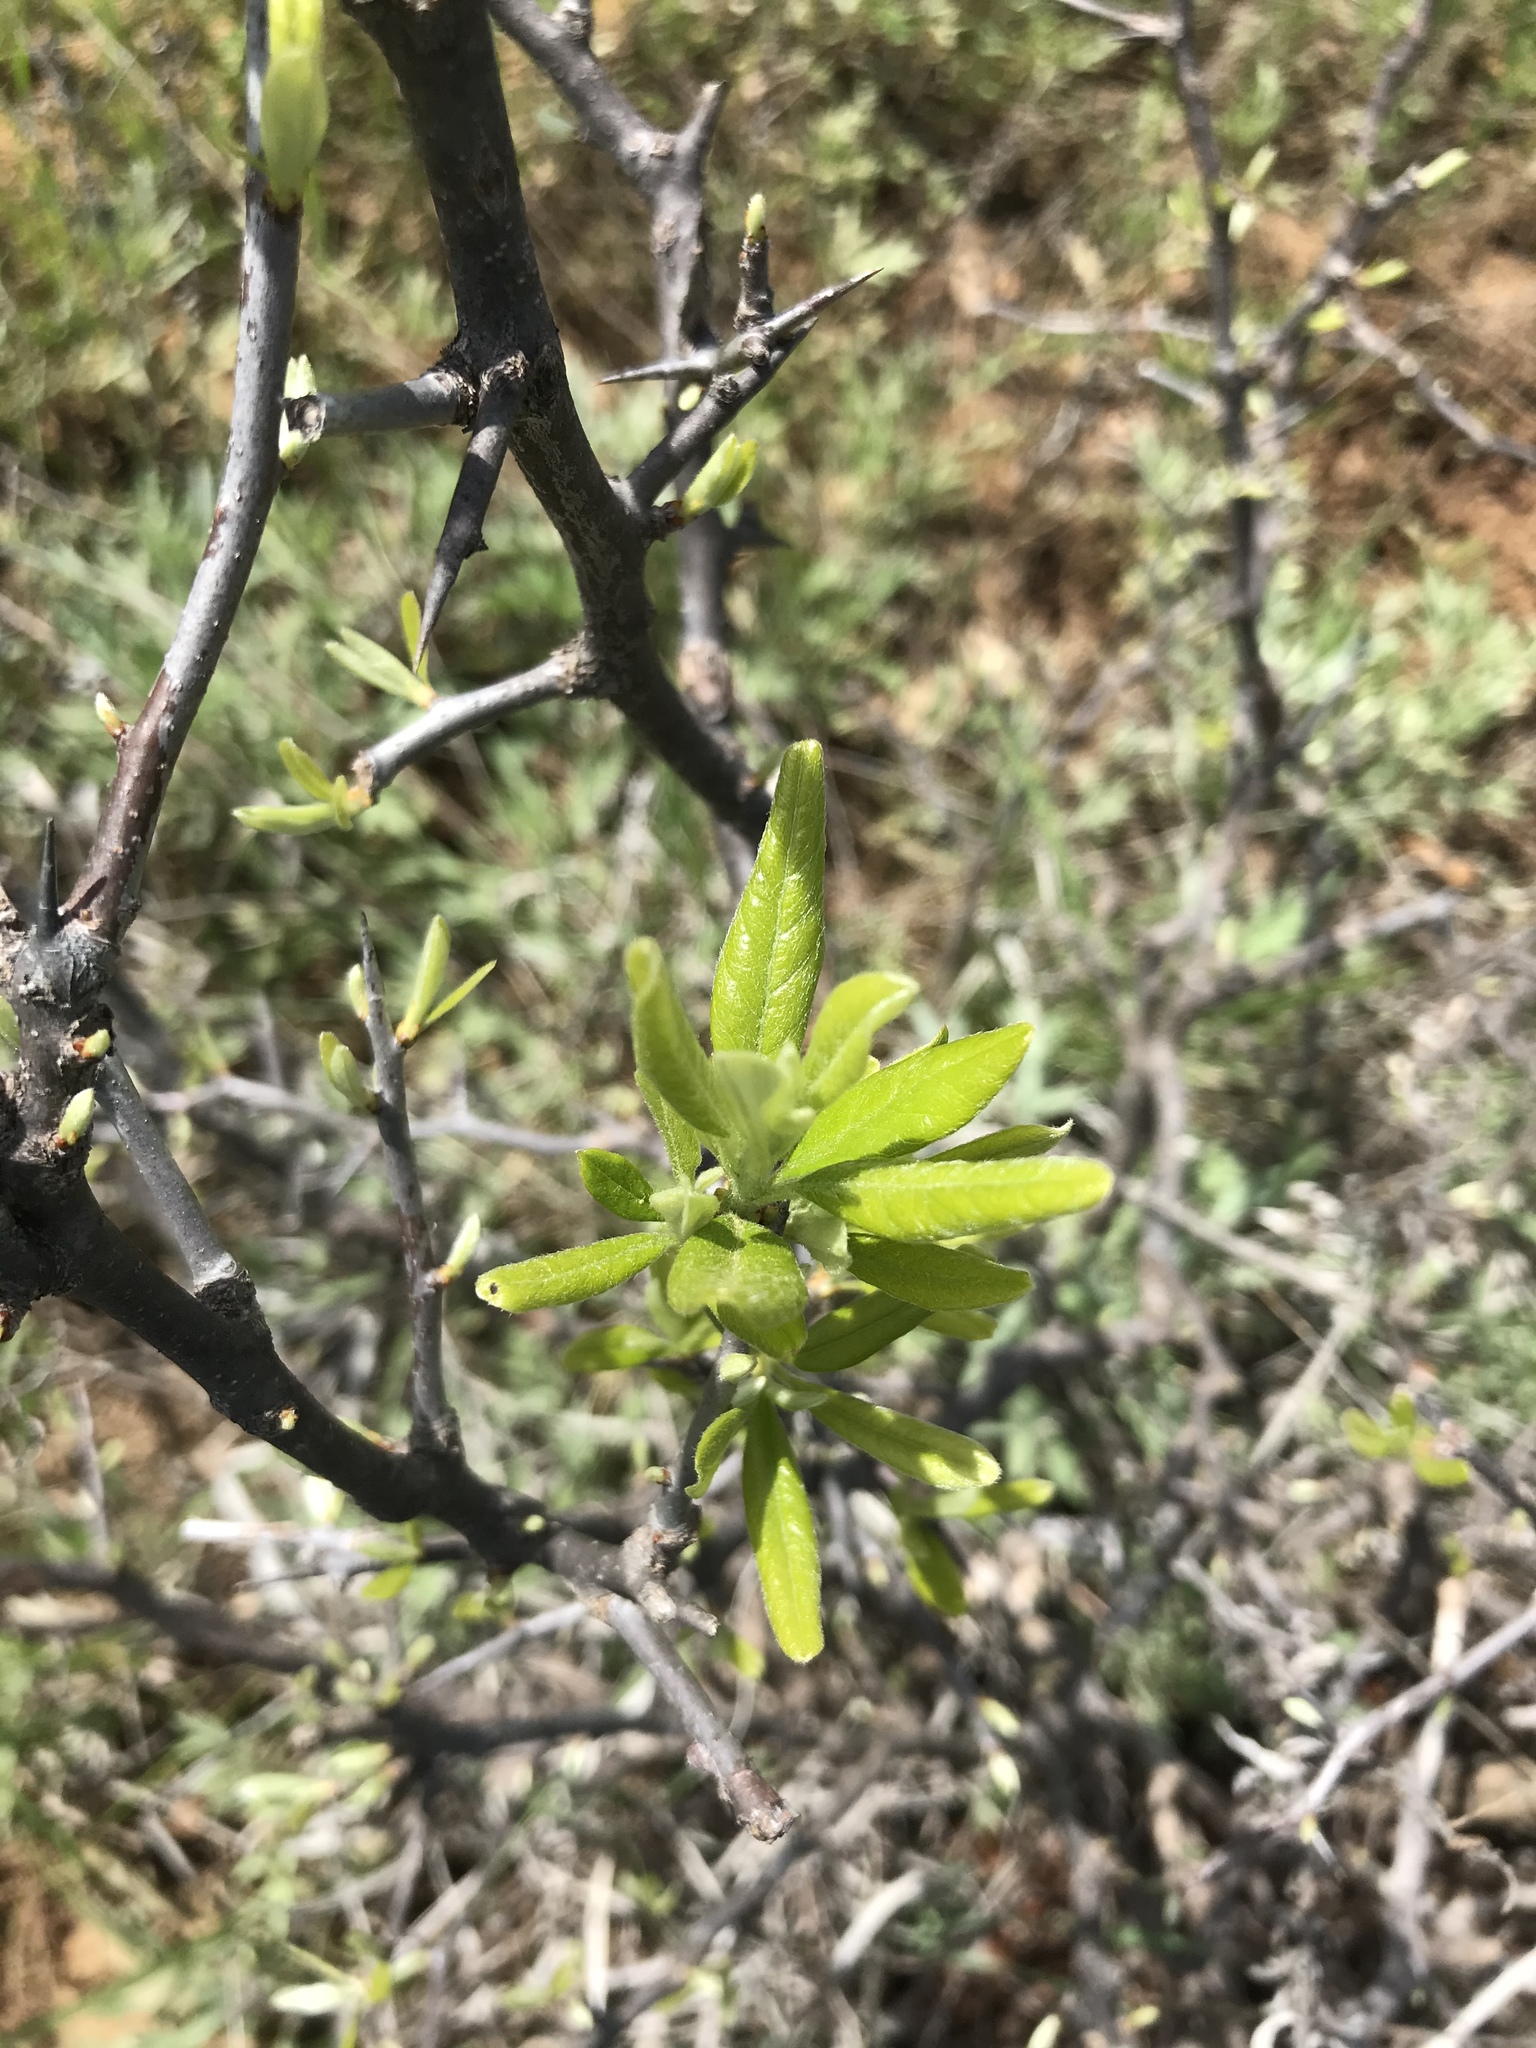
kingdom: Plantae
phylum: Tracheophyta
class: Magnoliopsida
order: Rosales
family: Rhamnaceae
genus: Sarcomphalus
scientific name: Sarcomphalus obtusifolius
